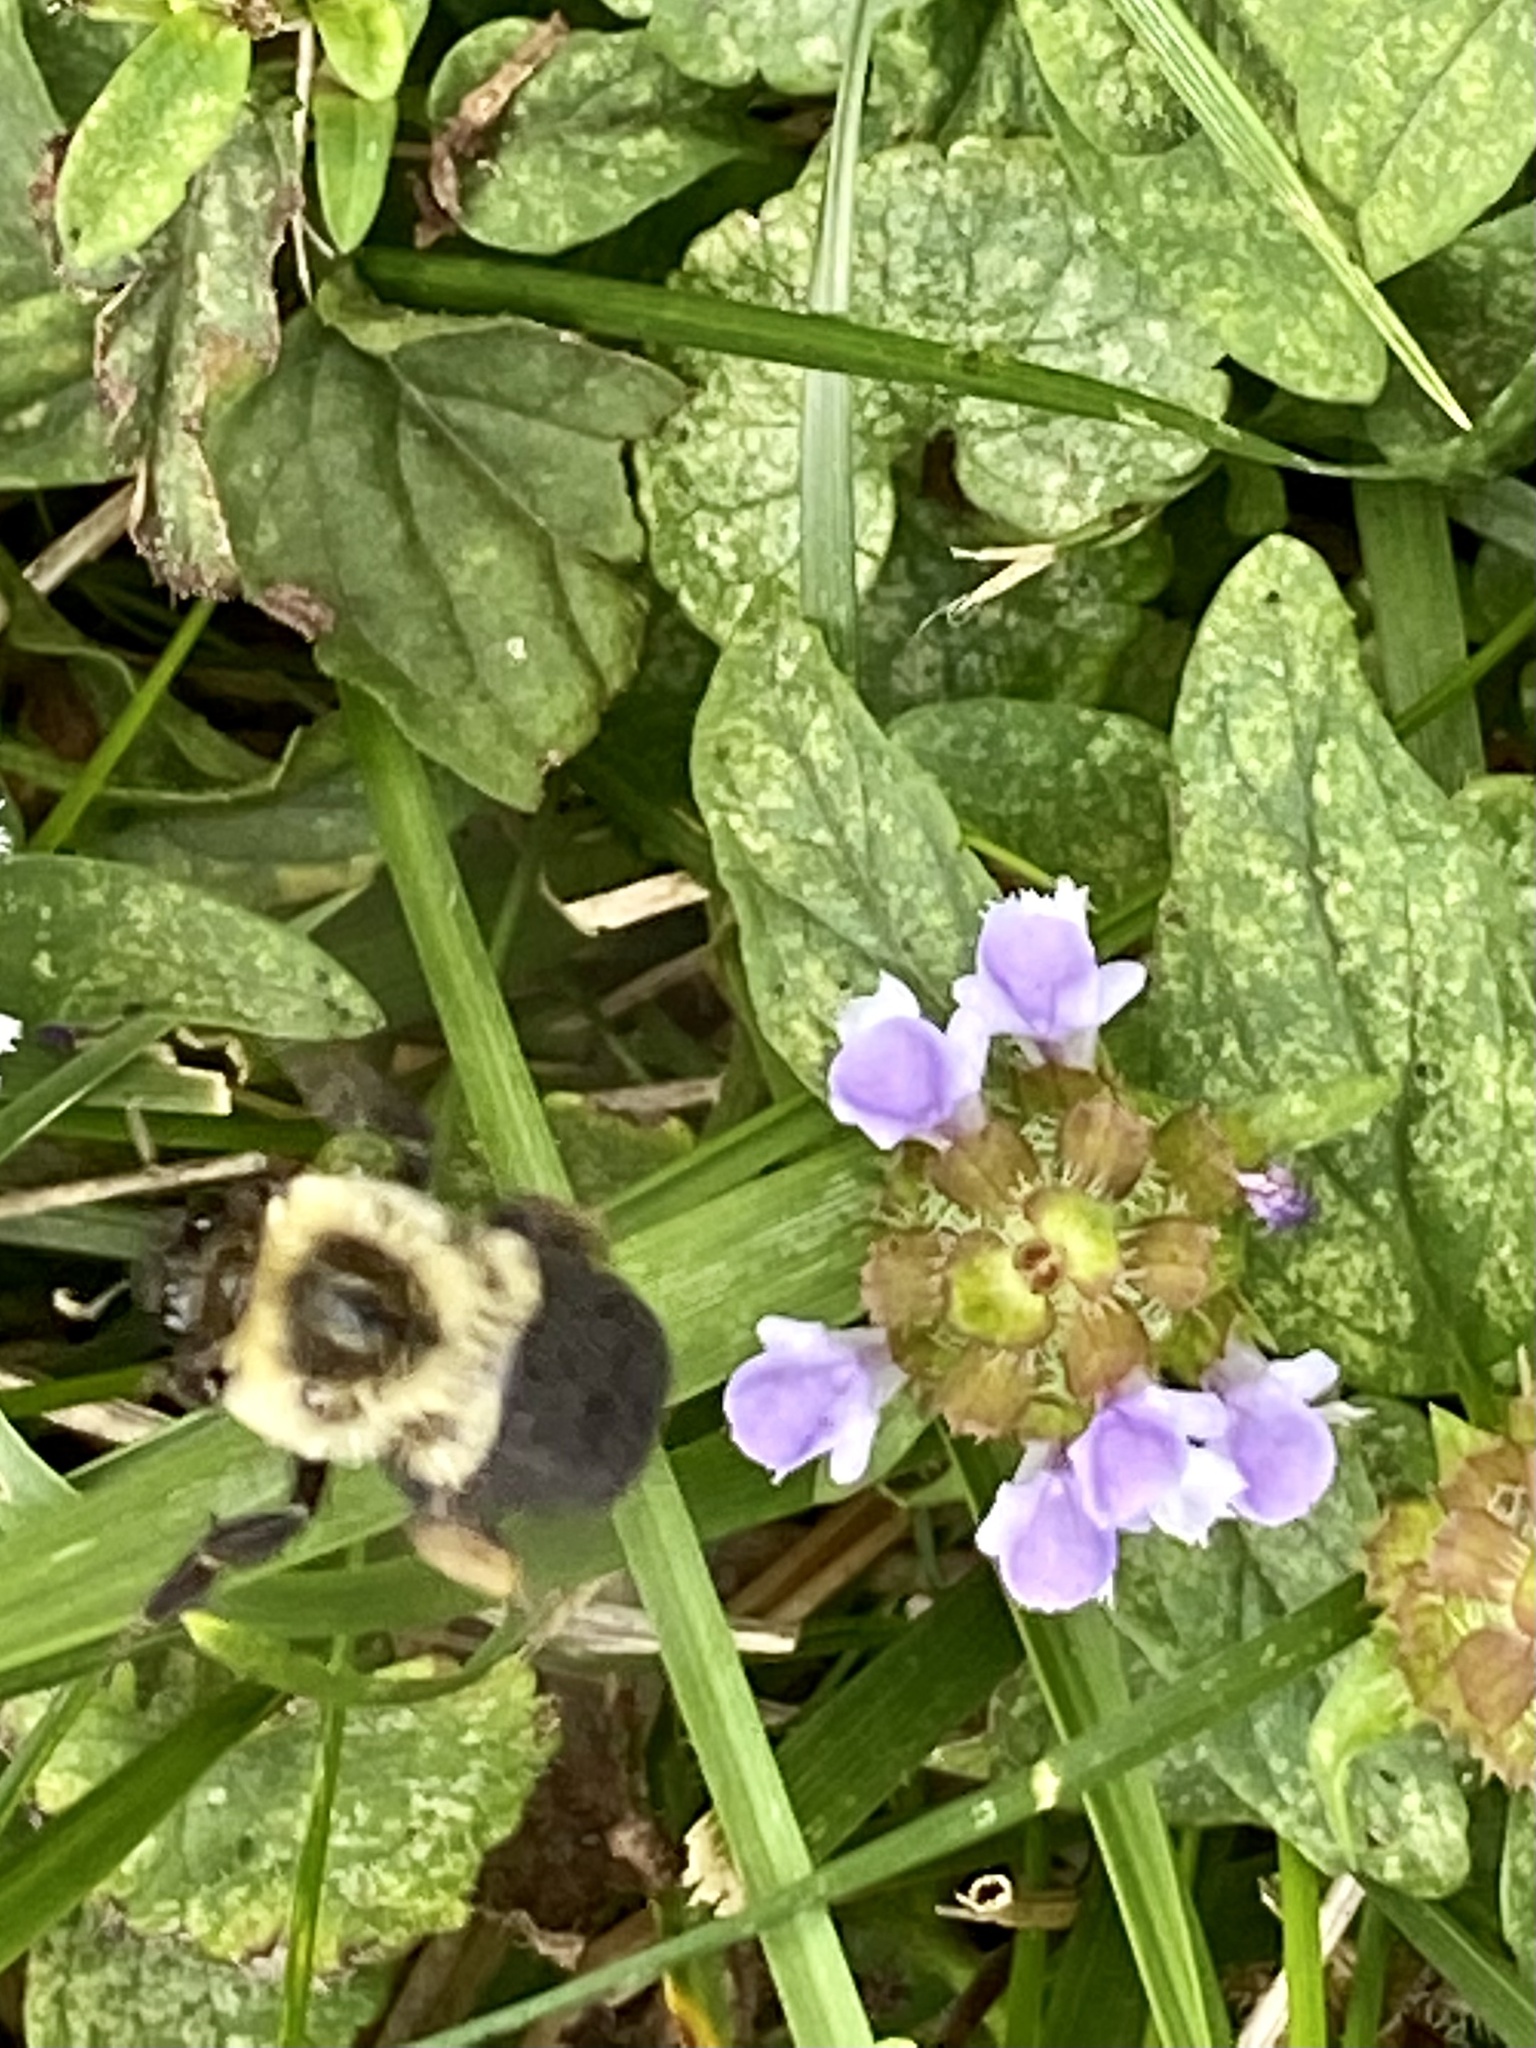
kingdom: Animalia
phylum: Arthropoda
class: Insecta
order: Hymenoptera
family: Apidae
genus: Bombus
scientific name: Bombus impatiens
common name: Common eastern bumble bee
